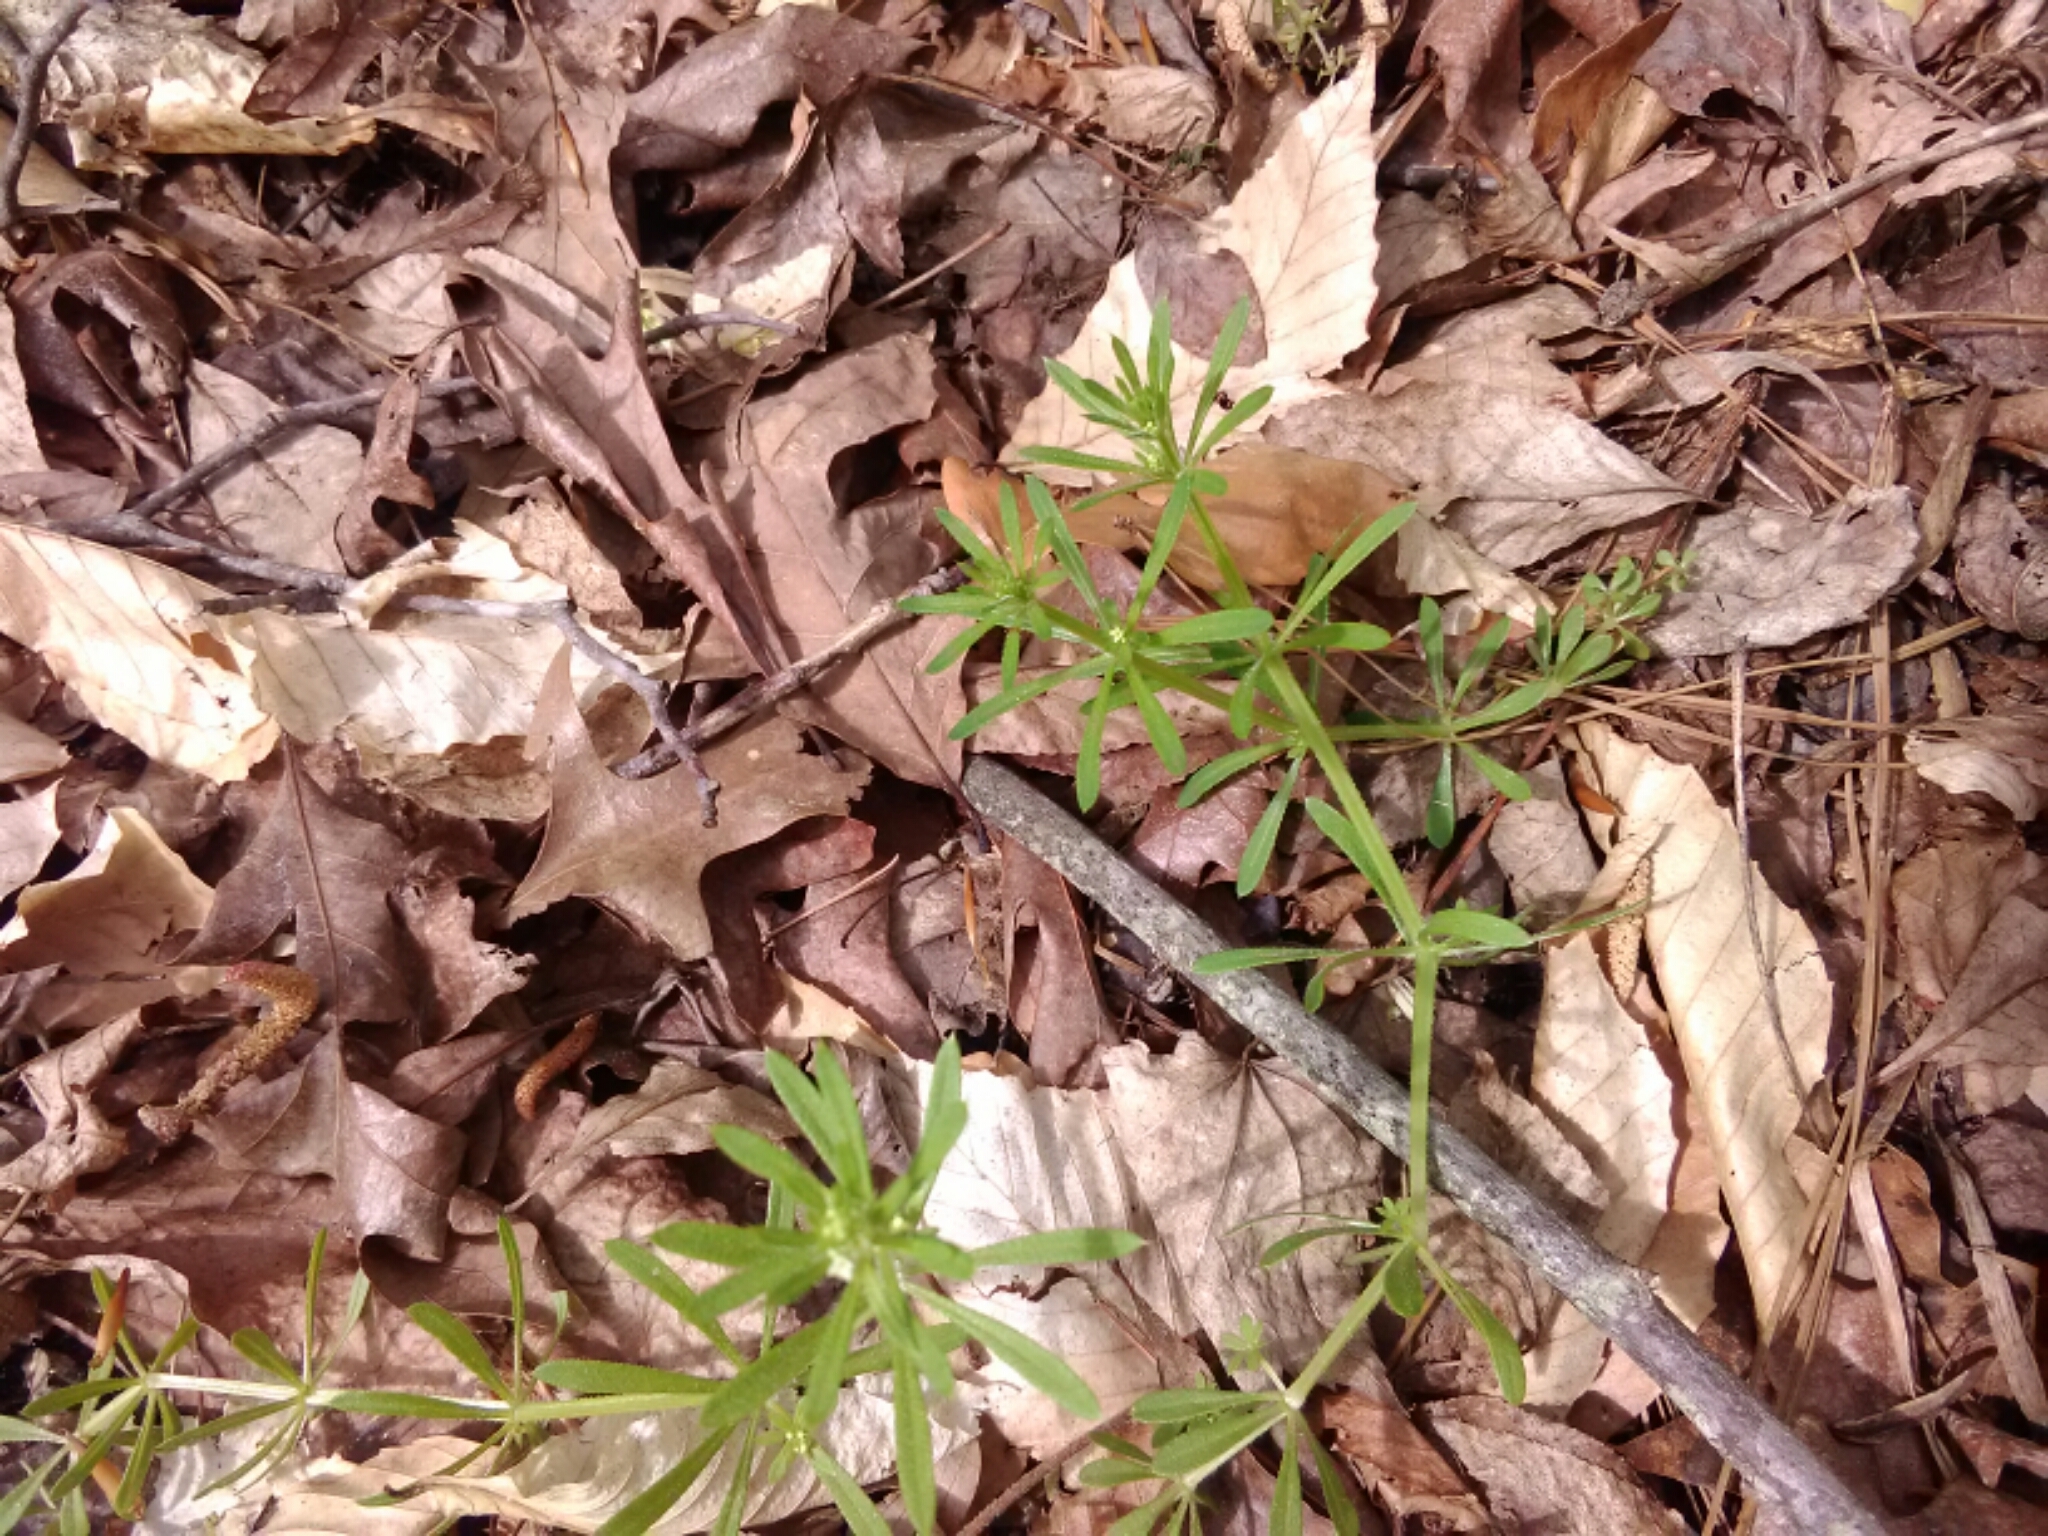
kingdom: Plantae
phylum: Tracheophyta
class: Magnoliopsida
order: Gentianales
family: Rubiaceae
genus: Galium
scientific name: Galium aparine
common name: Cleavers
